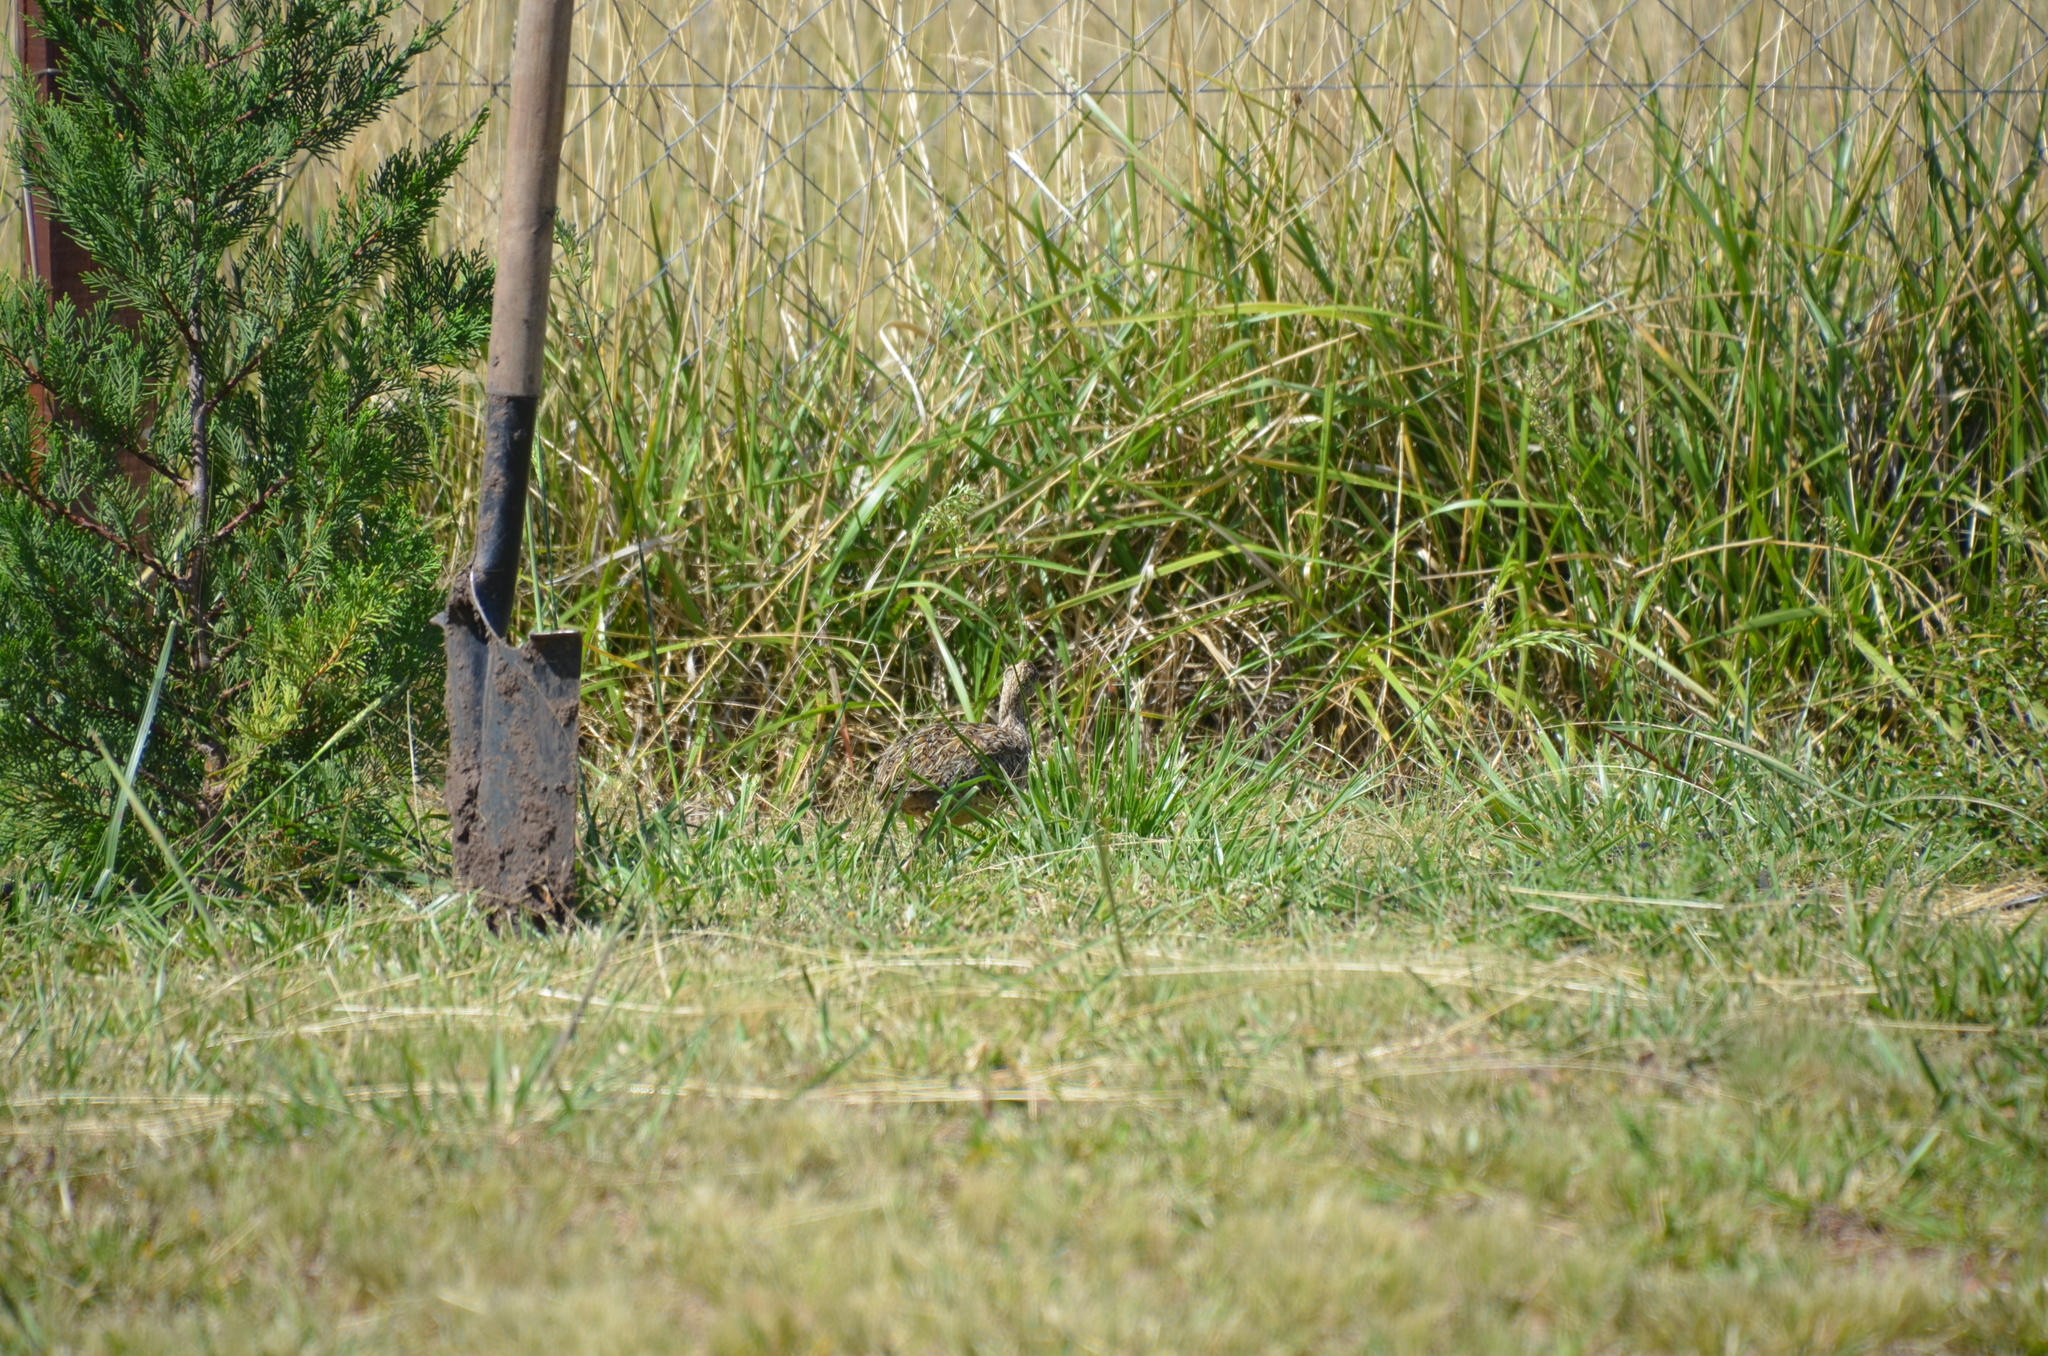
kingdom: Animalia
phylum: Chordata
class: Aves
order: Tinamiformes
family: Tinamidae
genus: Nothura
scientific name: Nothura maculosa
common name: Spotted nothura
